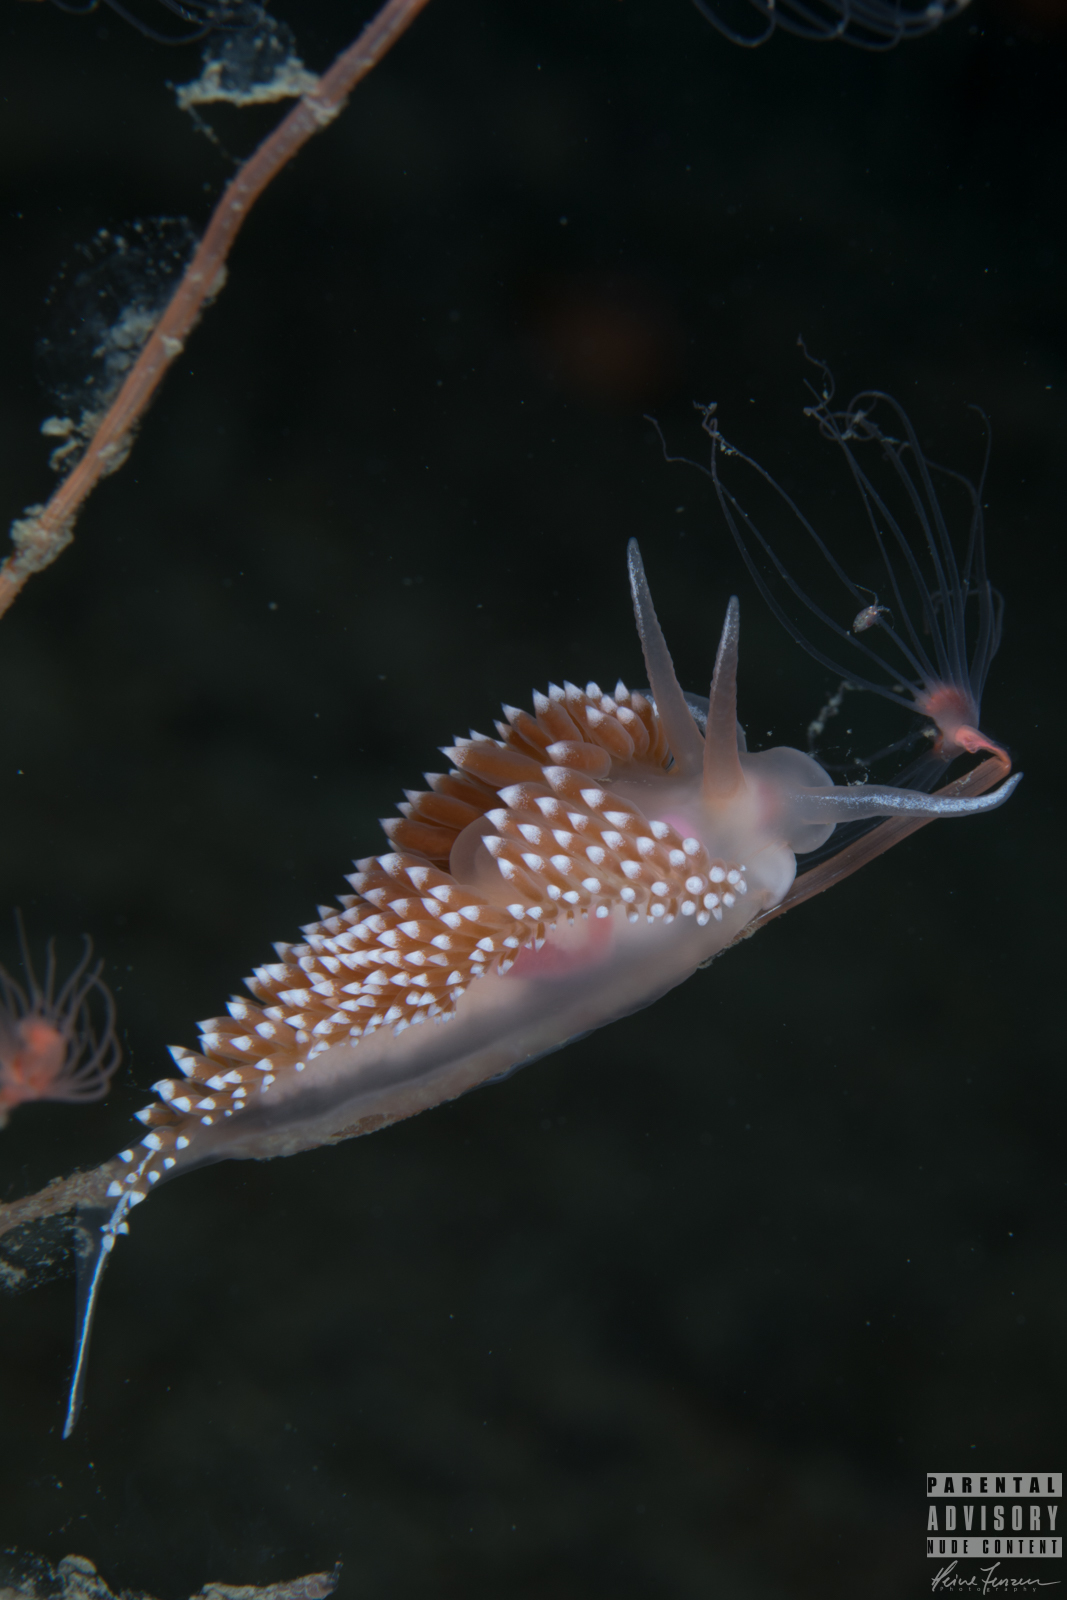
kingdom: Animalia
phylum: Mollusca
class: Gastropoda
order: Nudibranchia
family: Coryphellidae
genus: Coryphella
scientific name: Coryphella verrucosa
